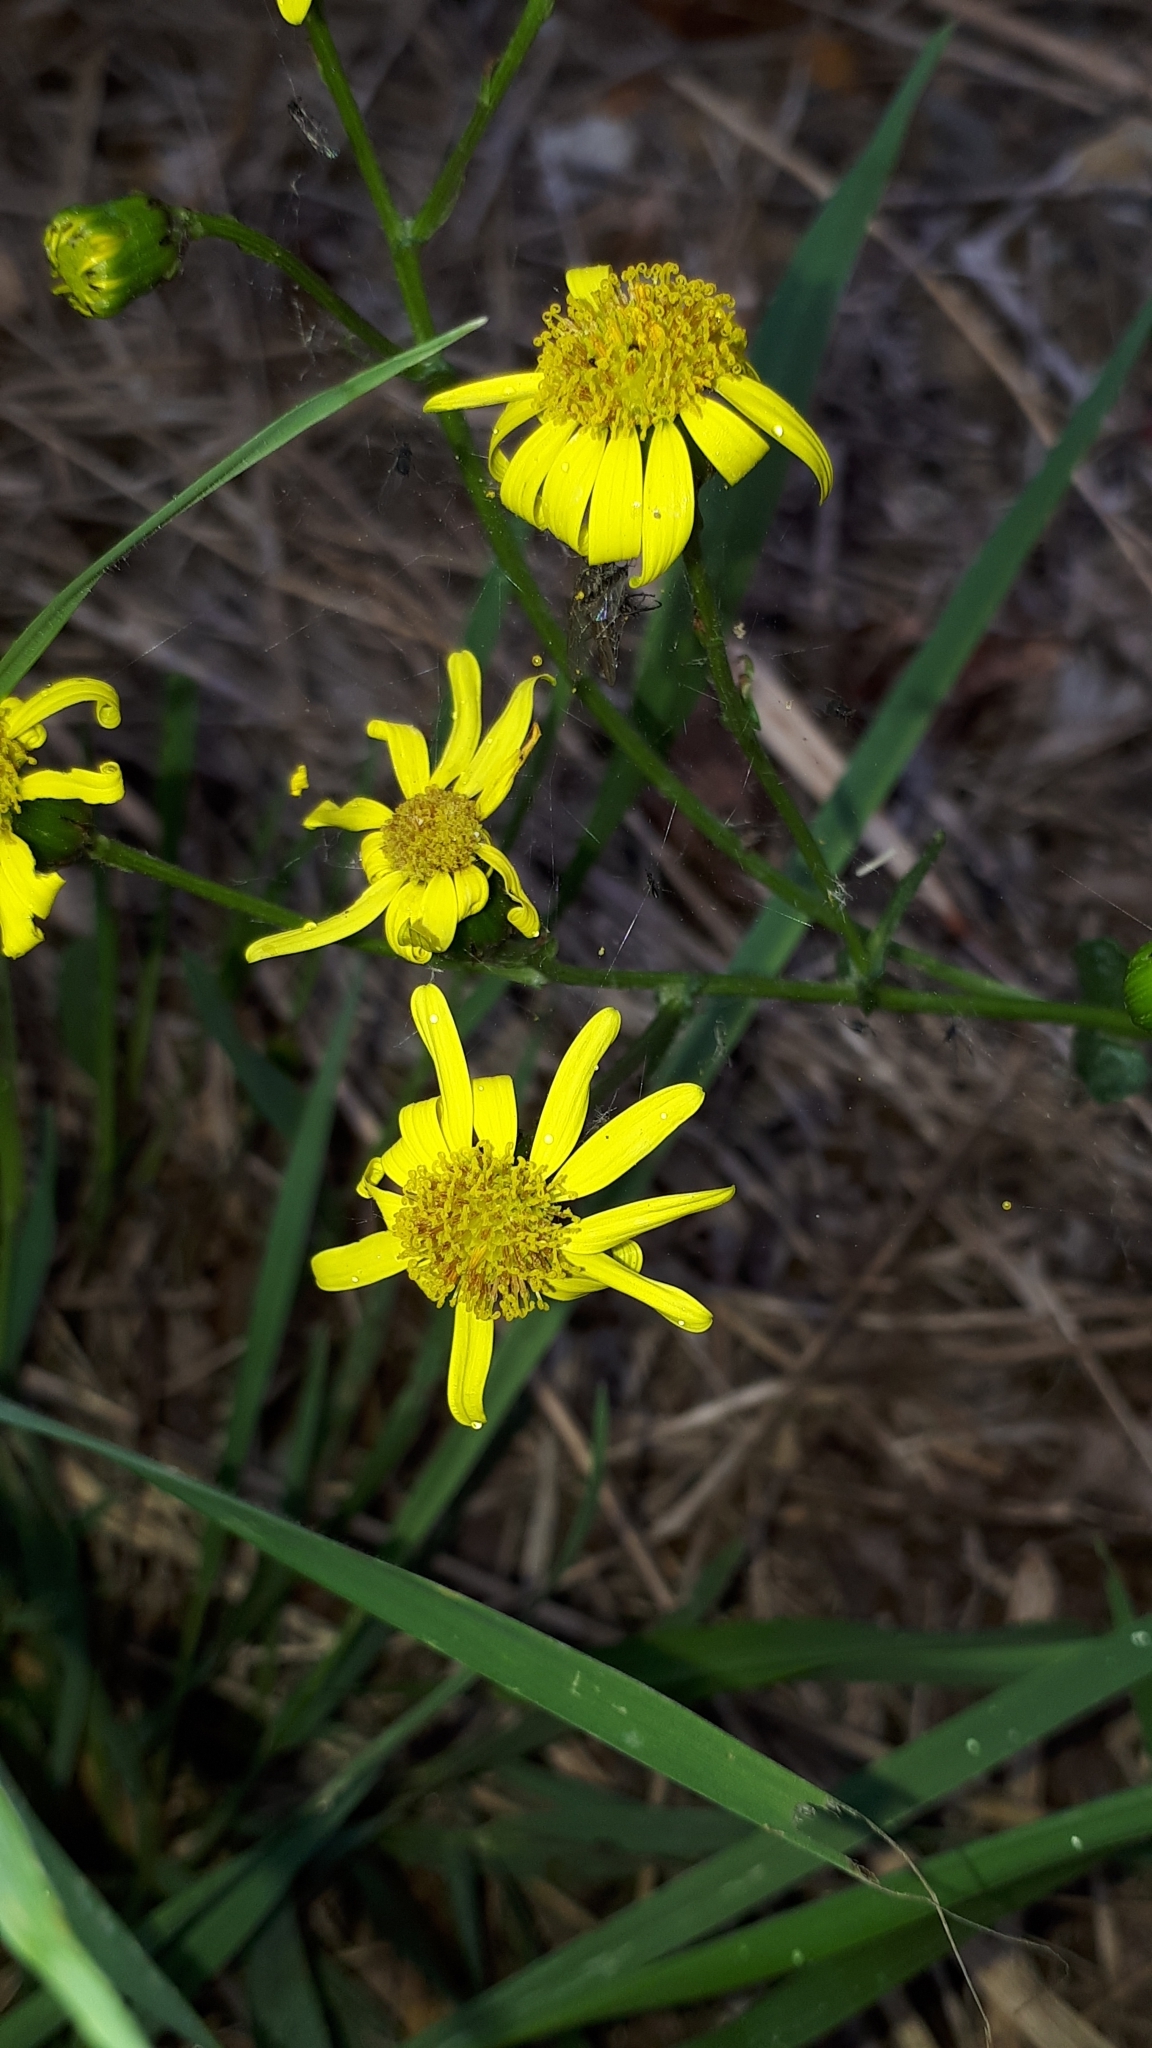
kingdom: Plantae
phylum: Tracheophyta
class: Magnoliopsida
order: Asterales
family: Asteraceae
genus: Senecio
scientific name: Senecio inaequidens
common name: Narrow-leaved ragwort
